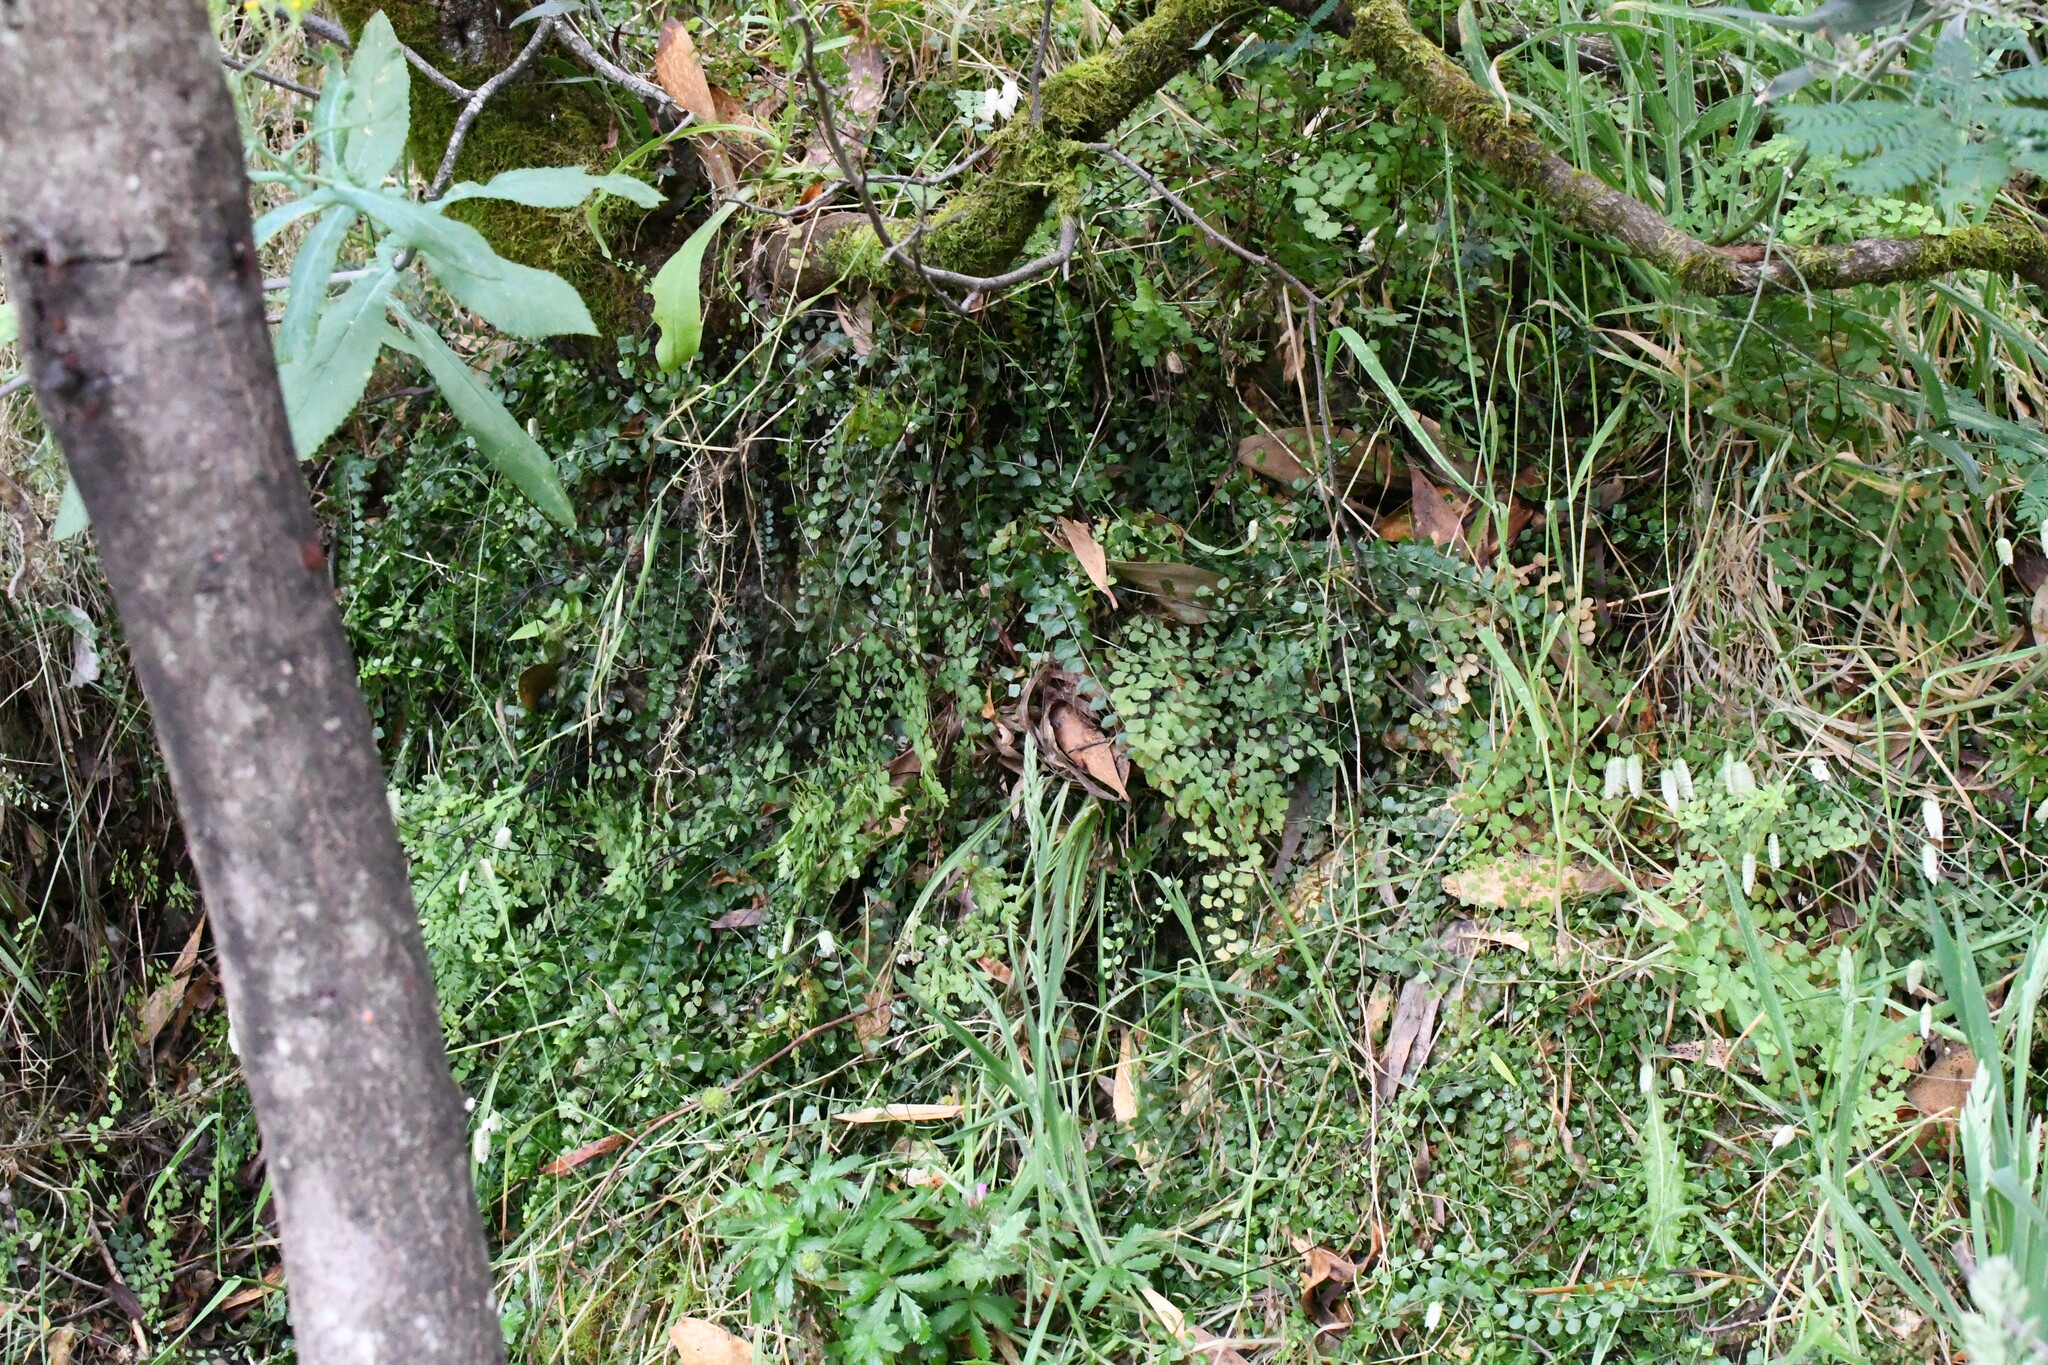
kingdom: Plantae
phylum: Tracheophyta
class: Polypodiopsida
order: Polypodiales
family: Aspleniaceae
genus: Asplenium
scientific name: Asplenium flabellifolium
